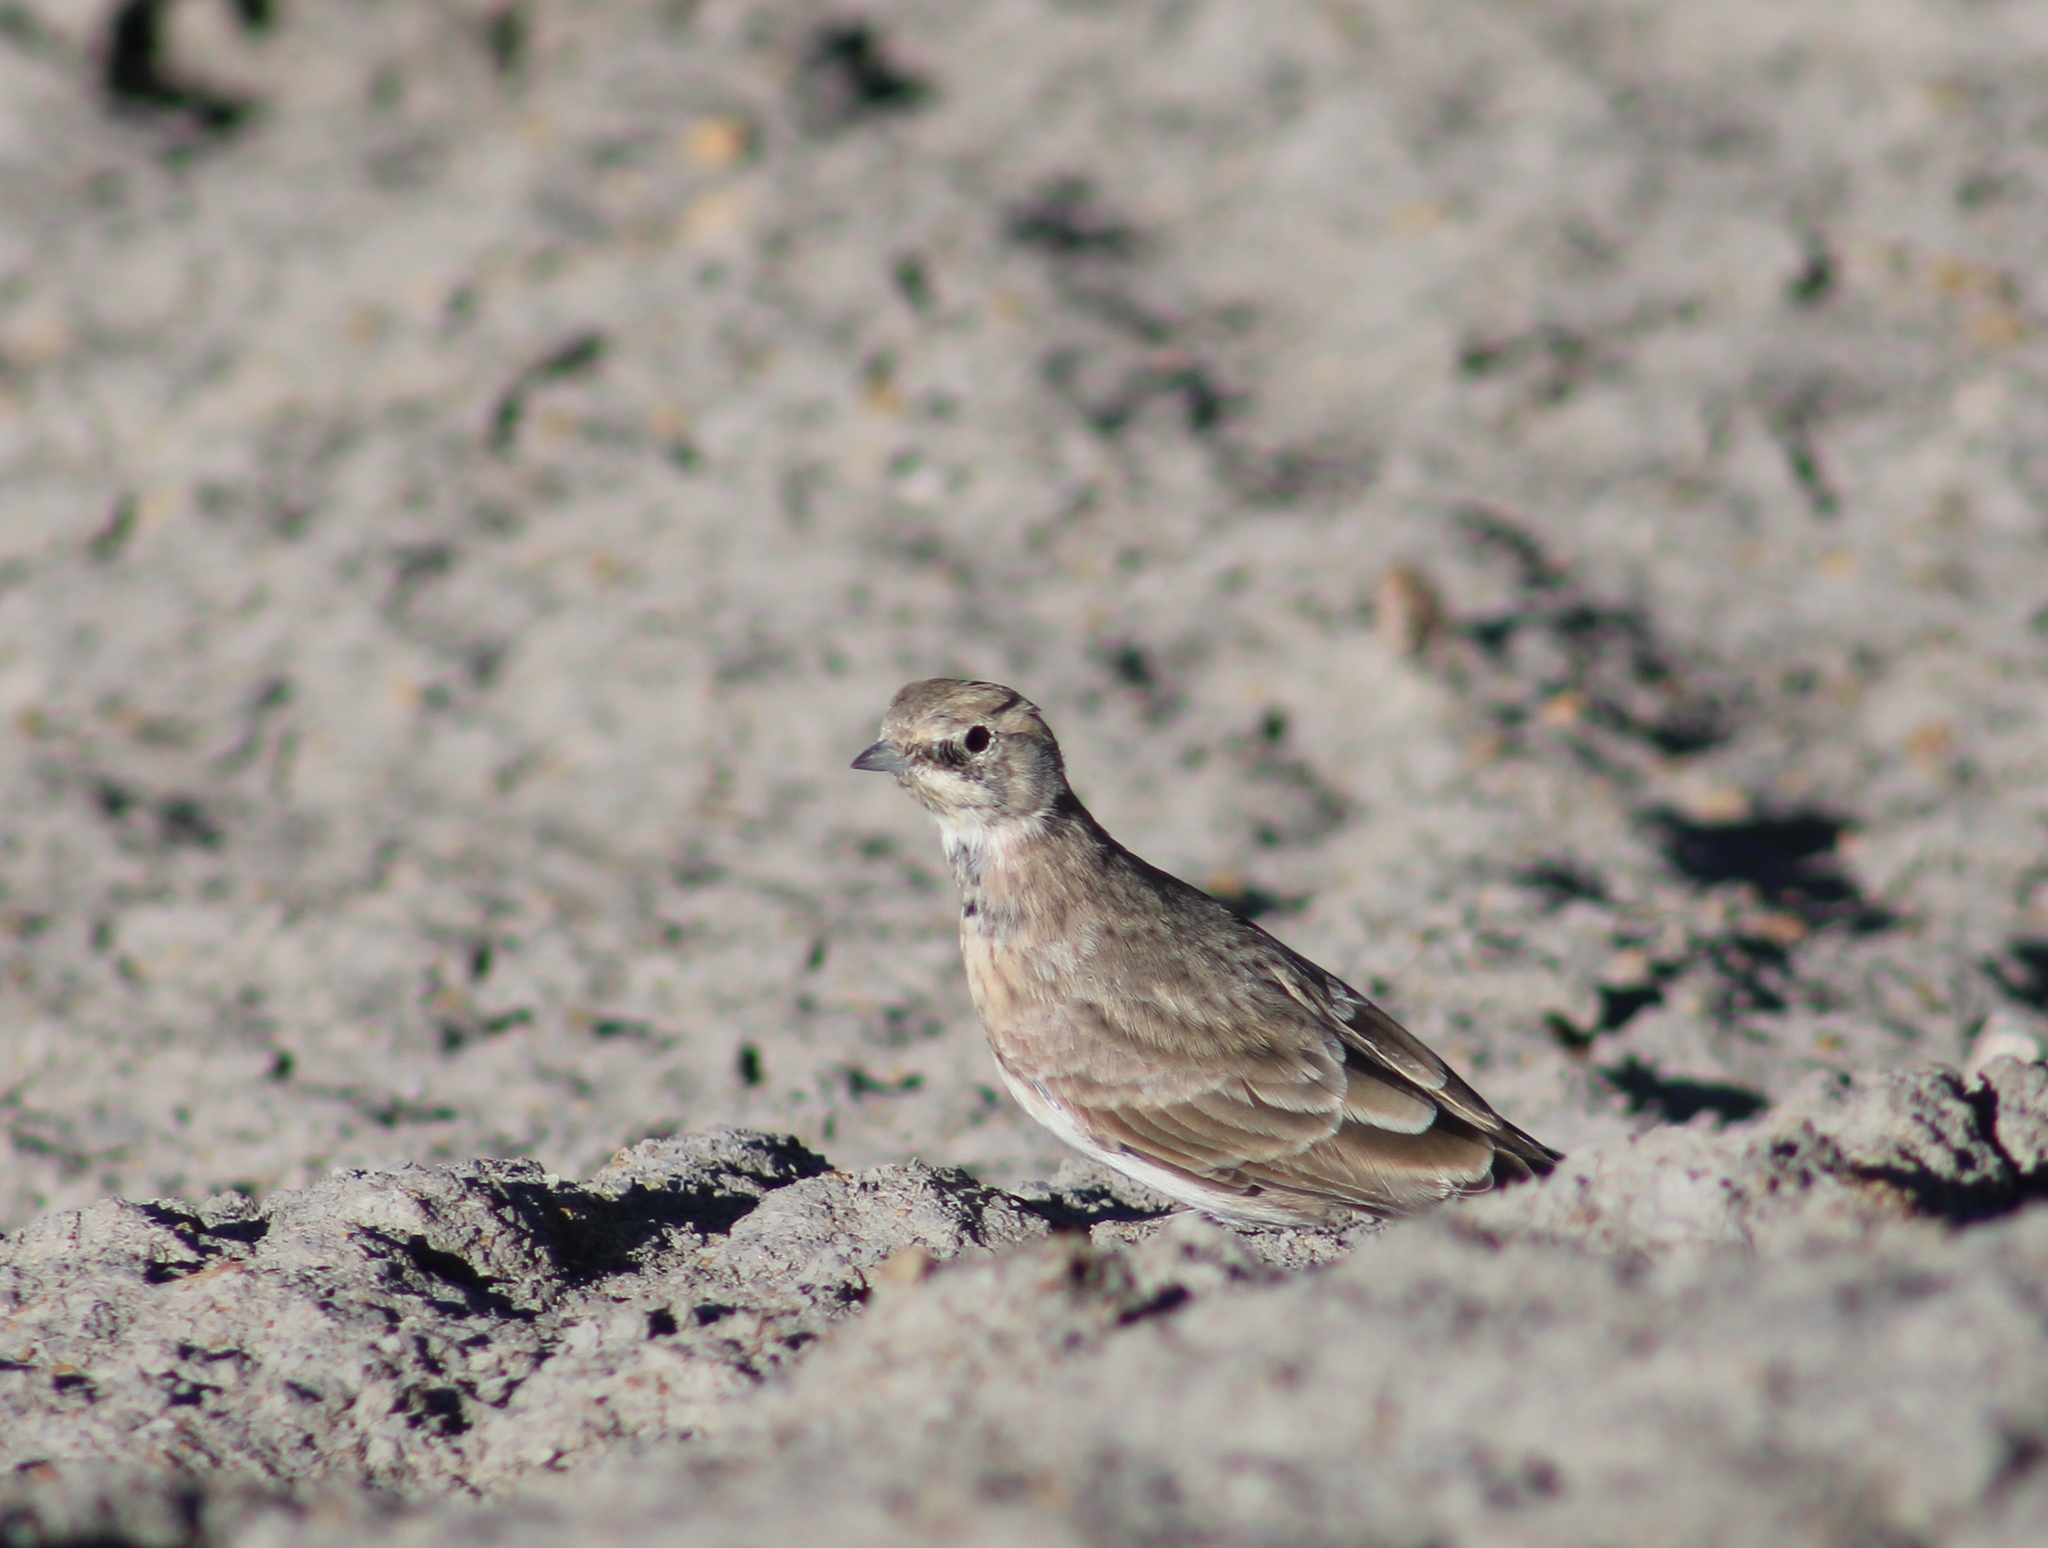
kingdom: Animalia
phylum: Chordata
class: Aves
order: Passeriformes
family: Alaudidae
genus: Eremophila
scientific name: Eremophila alpestris
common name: Horned lark
